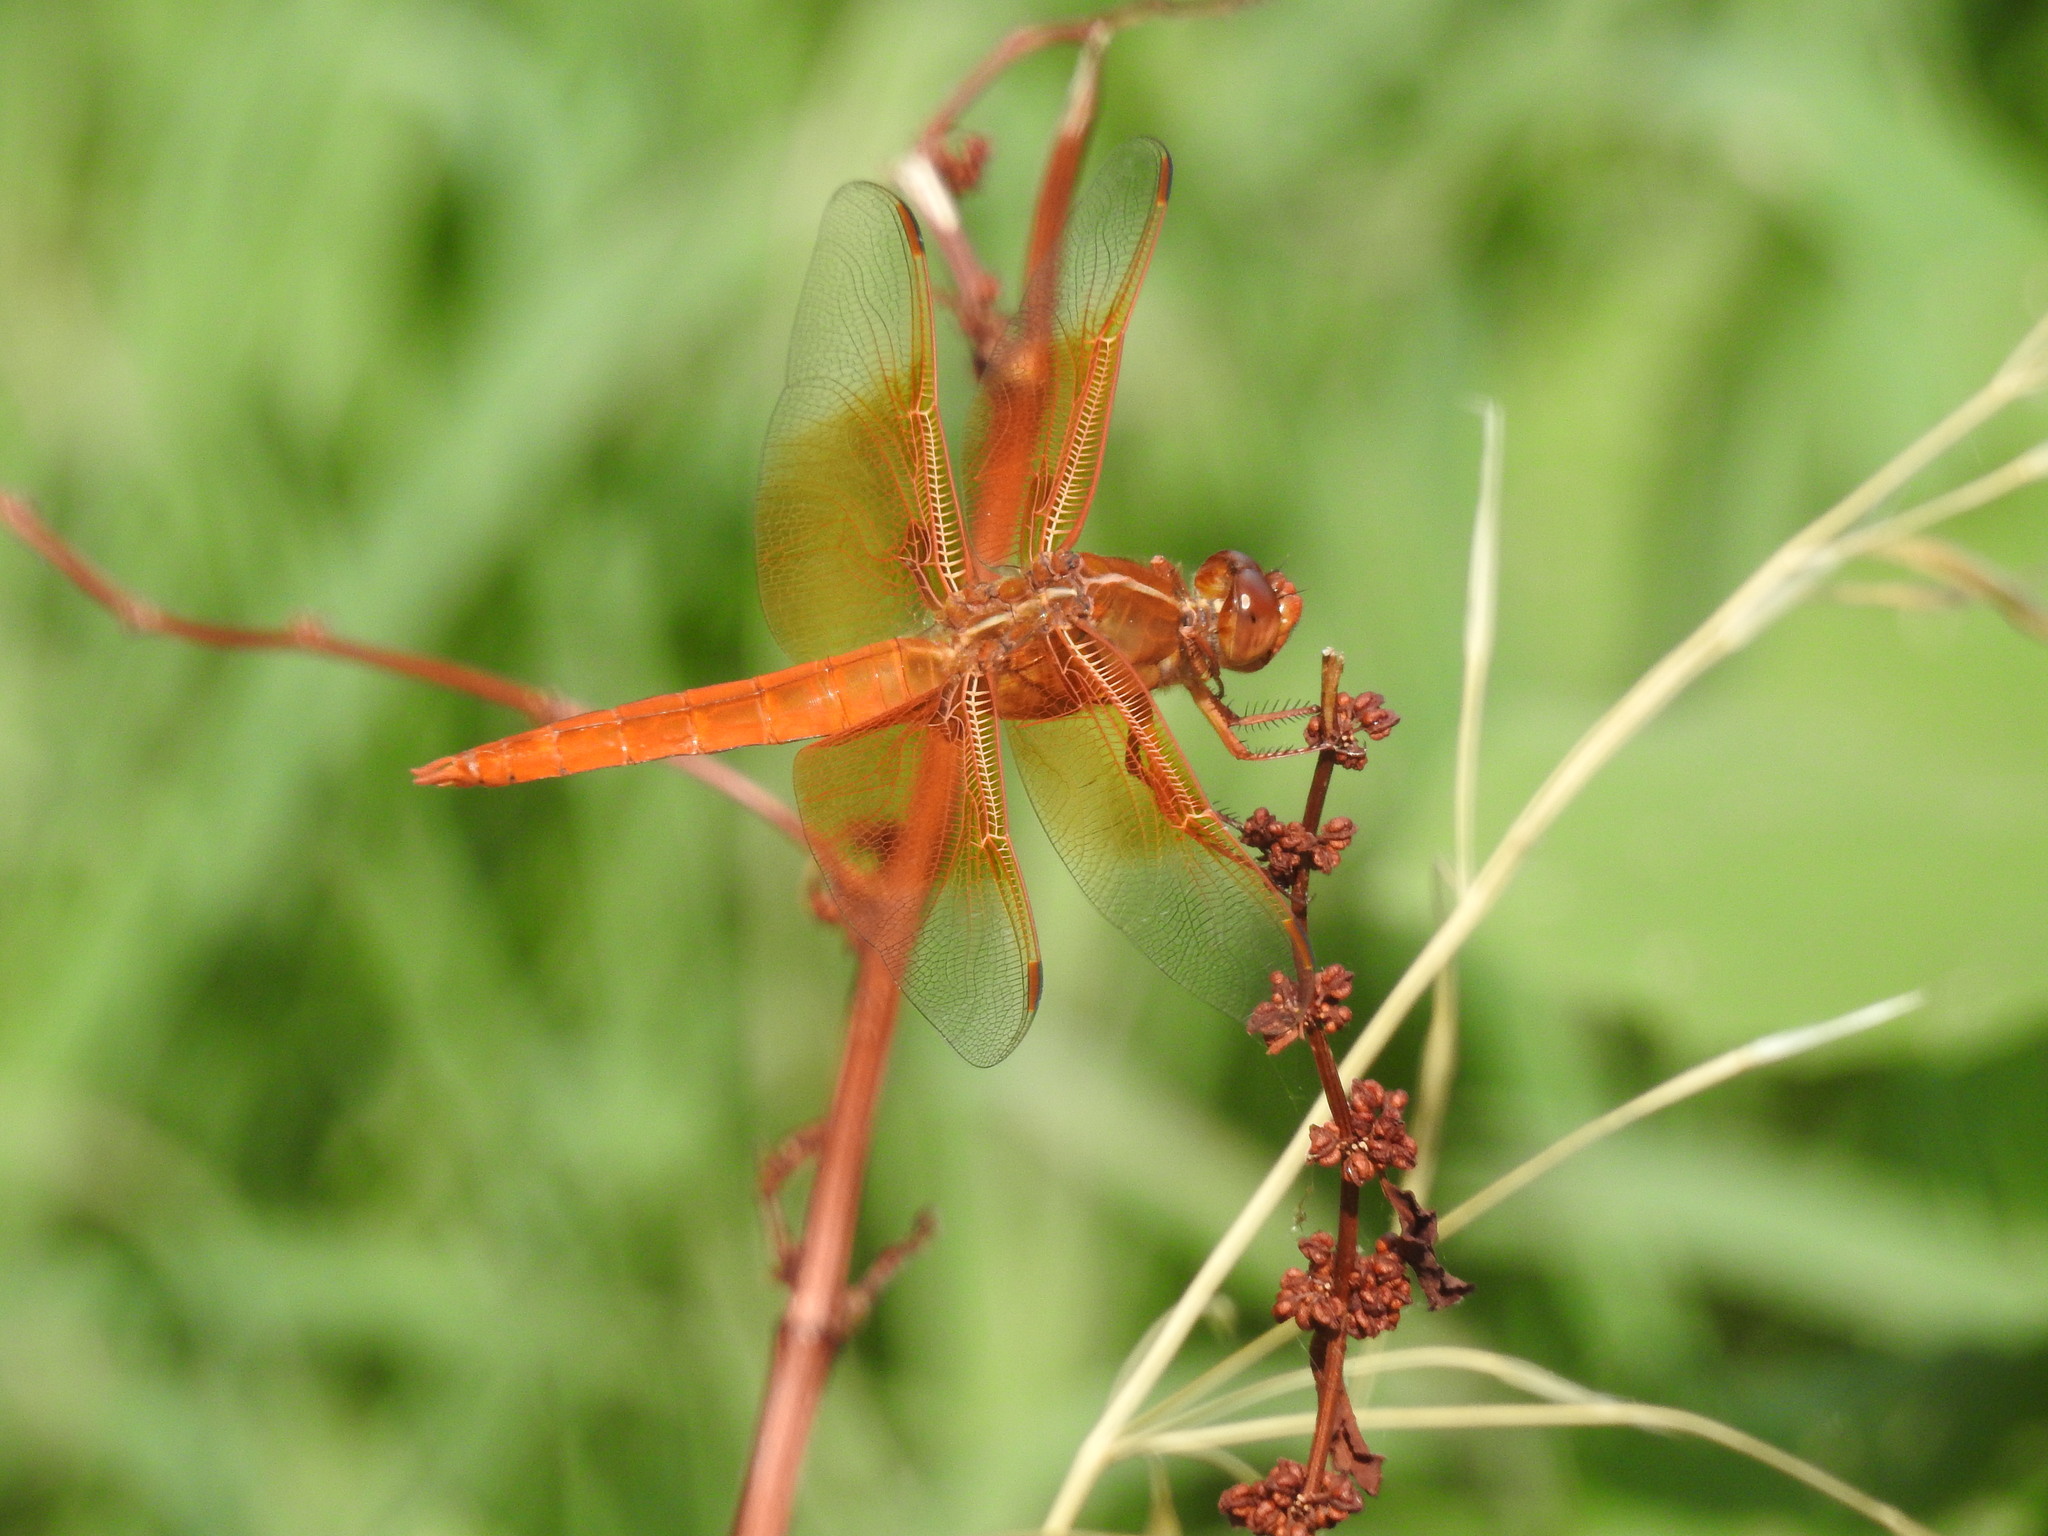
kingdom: Animalia
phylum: Arthropoda
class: Insecta
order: Odonata
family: Libellulidae
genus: Libellula
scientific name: Libellula saturata
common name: Flame skimmer
